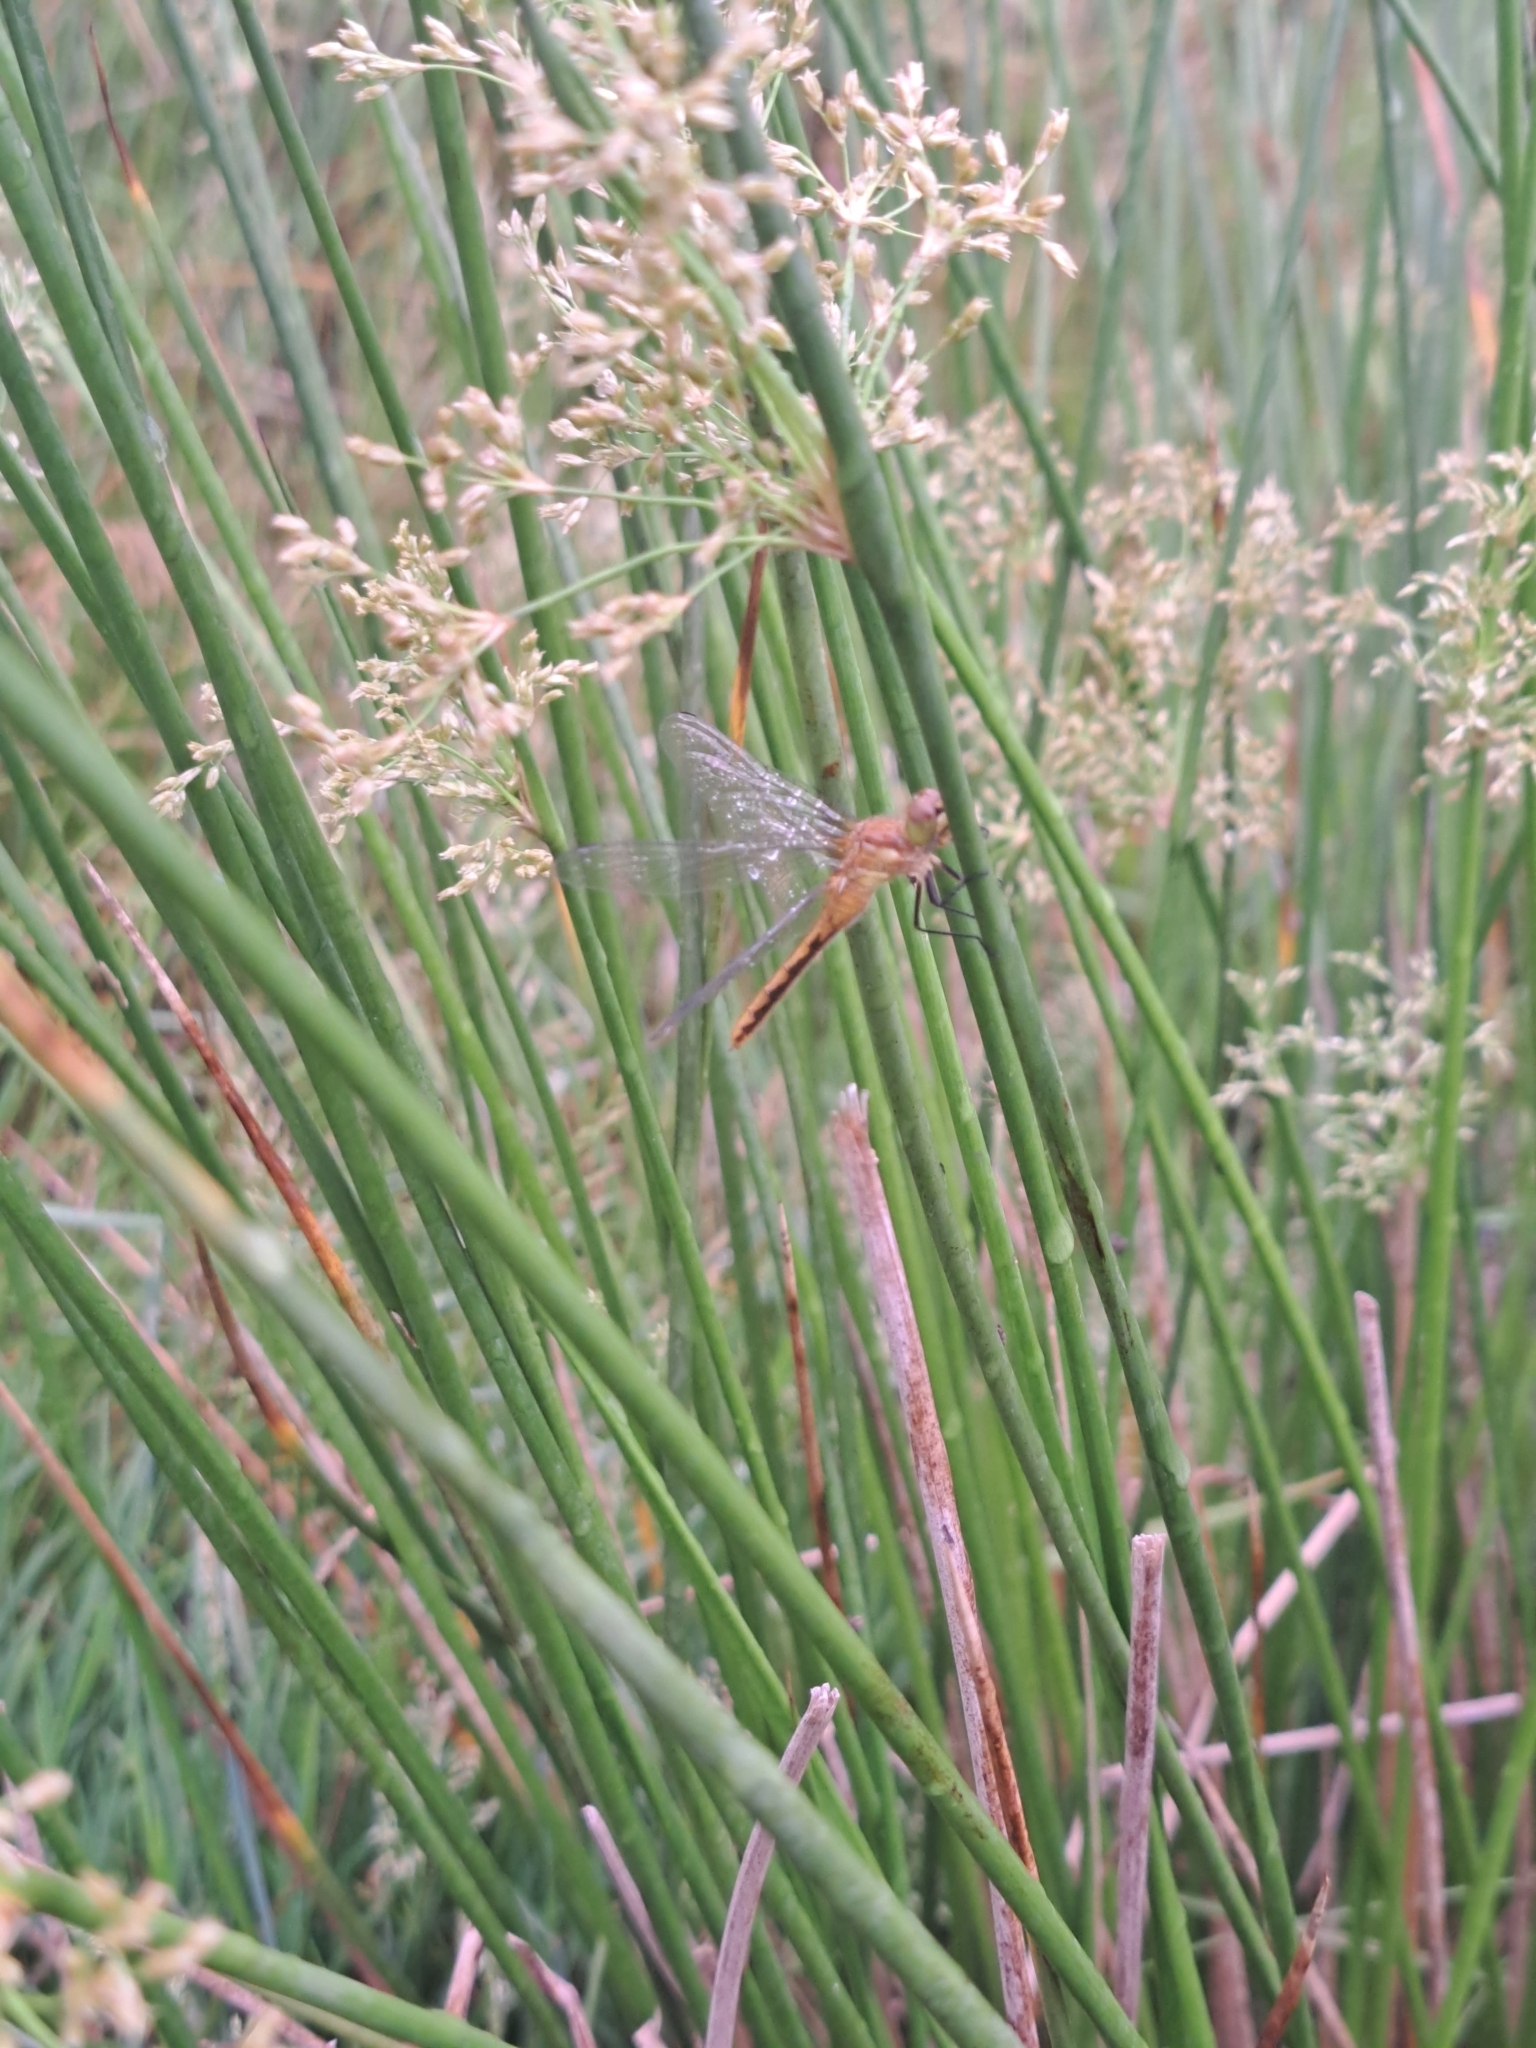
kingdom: Animalia
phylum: Arthropoda
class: Insecta
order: Odonata
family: Libellulidae
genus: Sympetrum
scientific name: Sympetrum
